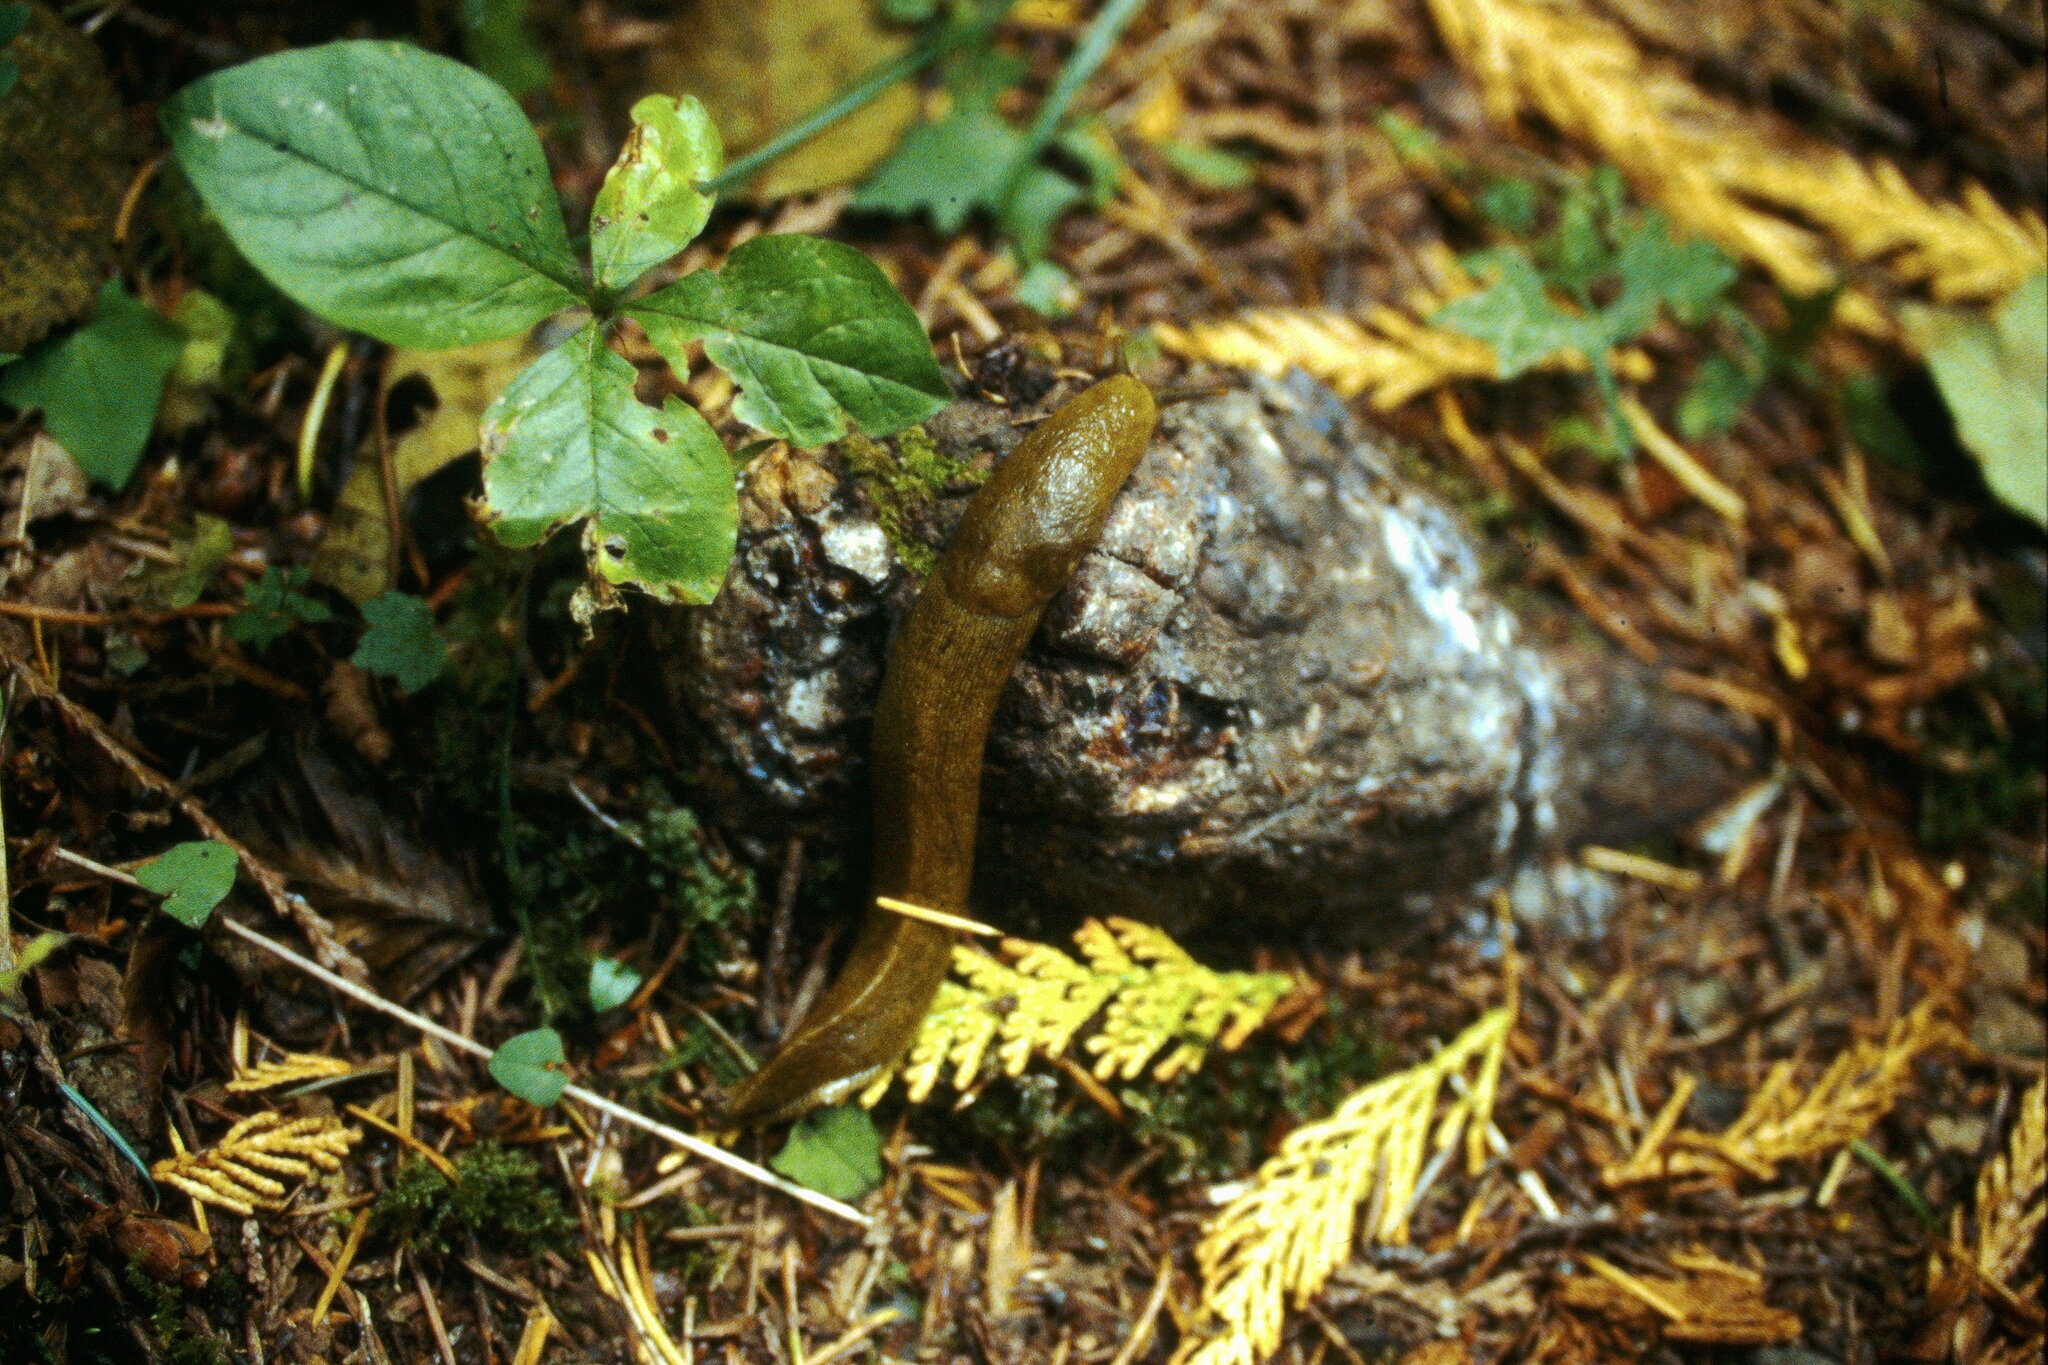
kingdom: Animalia
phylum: Mollusca
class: Gastropoda
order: Stylommatophora
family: Ariolimacidae
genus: Ariolimax
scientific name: Ariolimax columbianus
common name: Pacific banana slug
